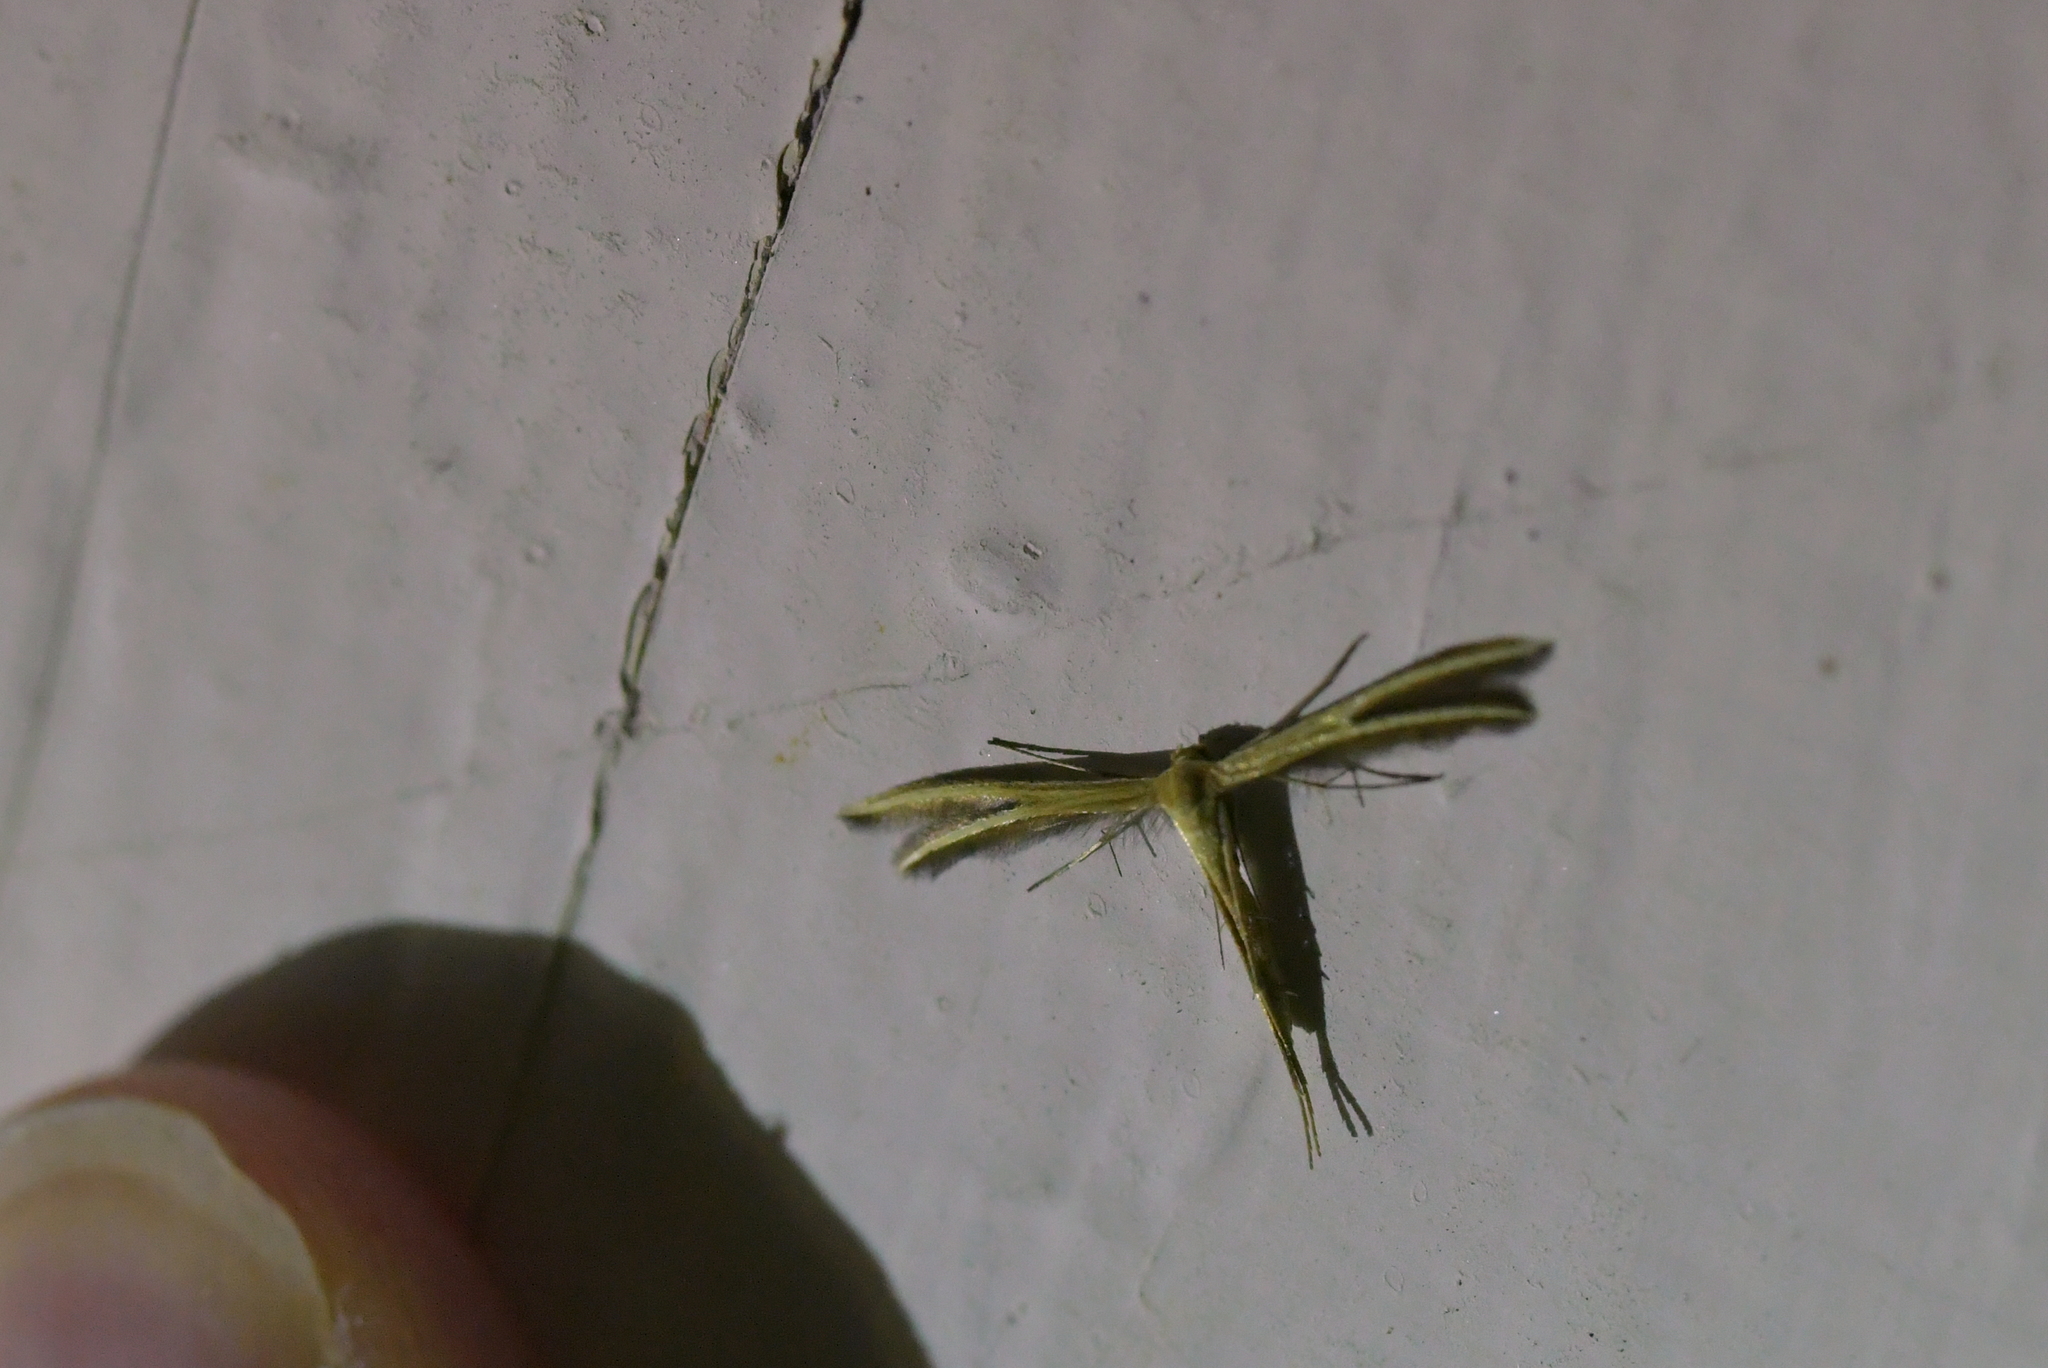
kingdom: Animalia
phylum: Arthropoda
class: Insecta
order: Lepidoptera
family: Pterophoridae
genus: Pterophorus
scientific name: Pterophorus innotatalis
